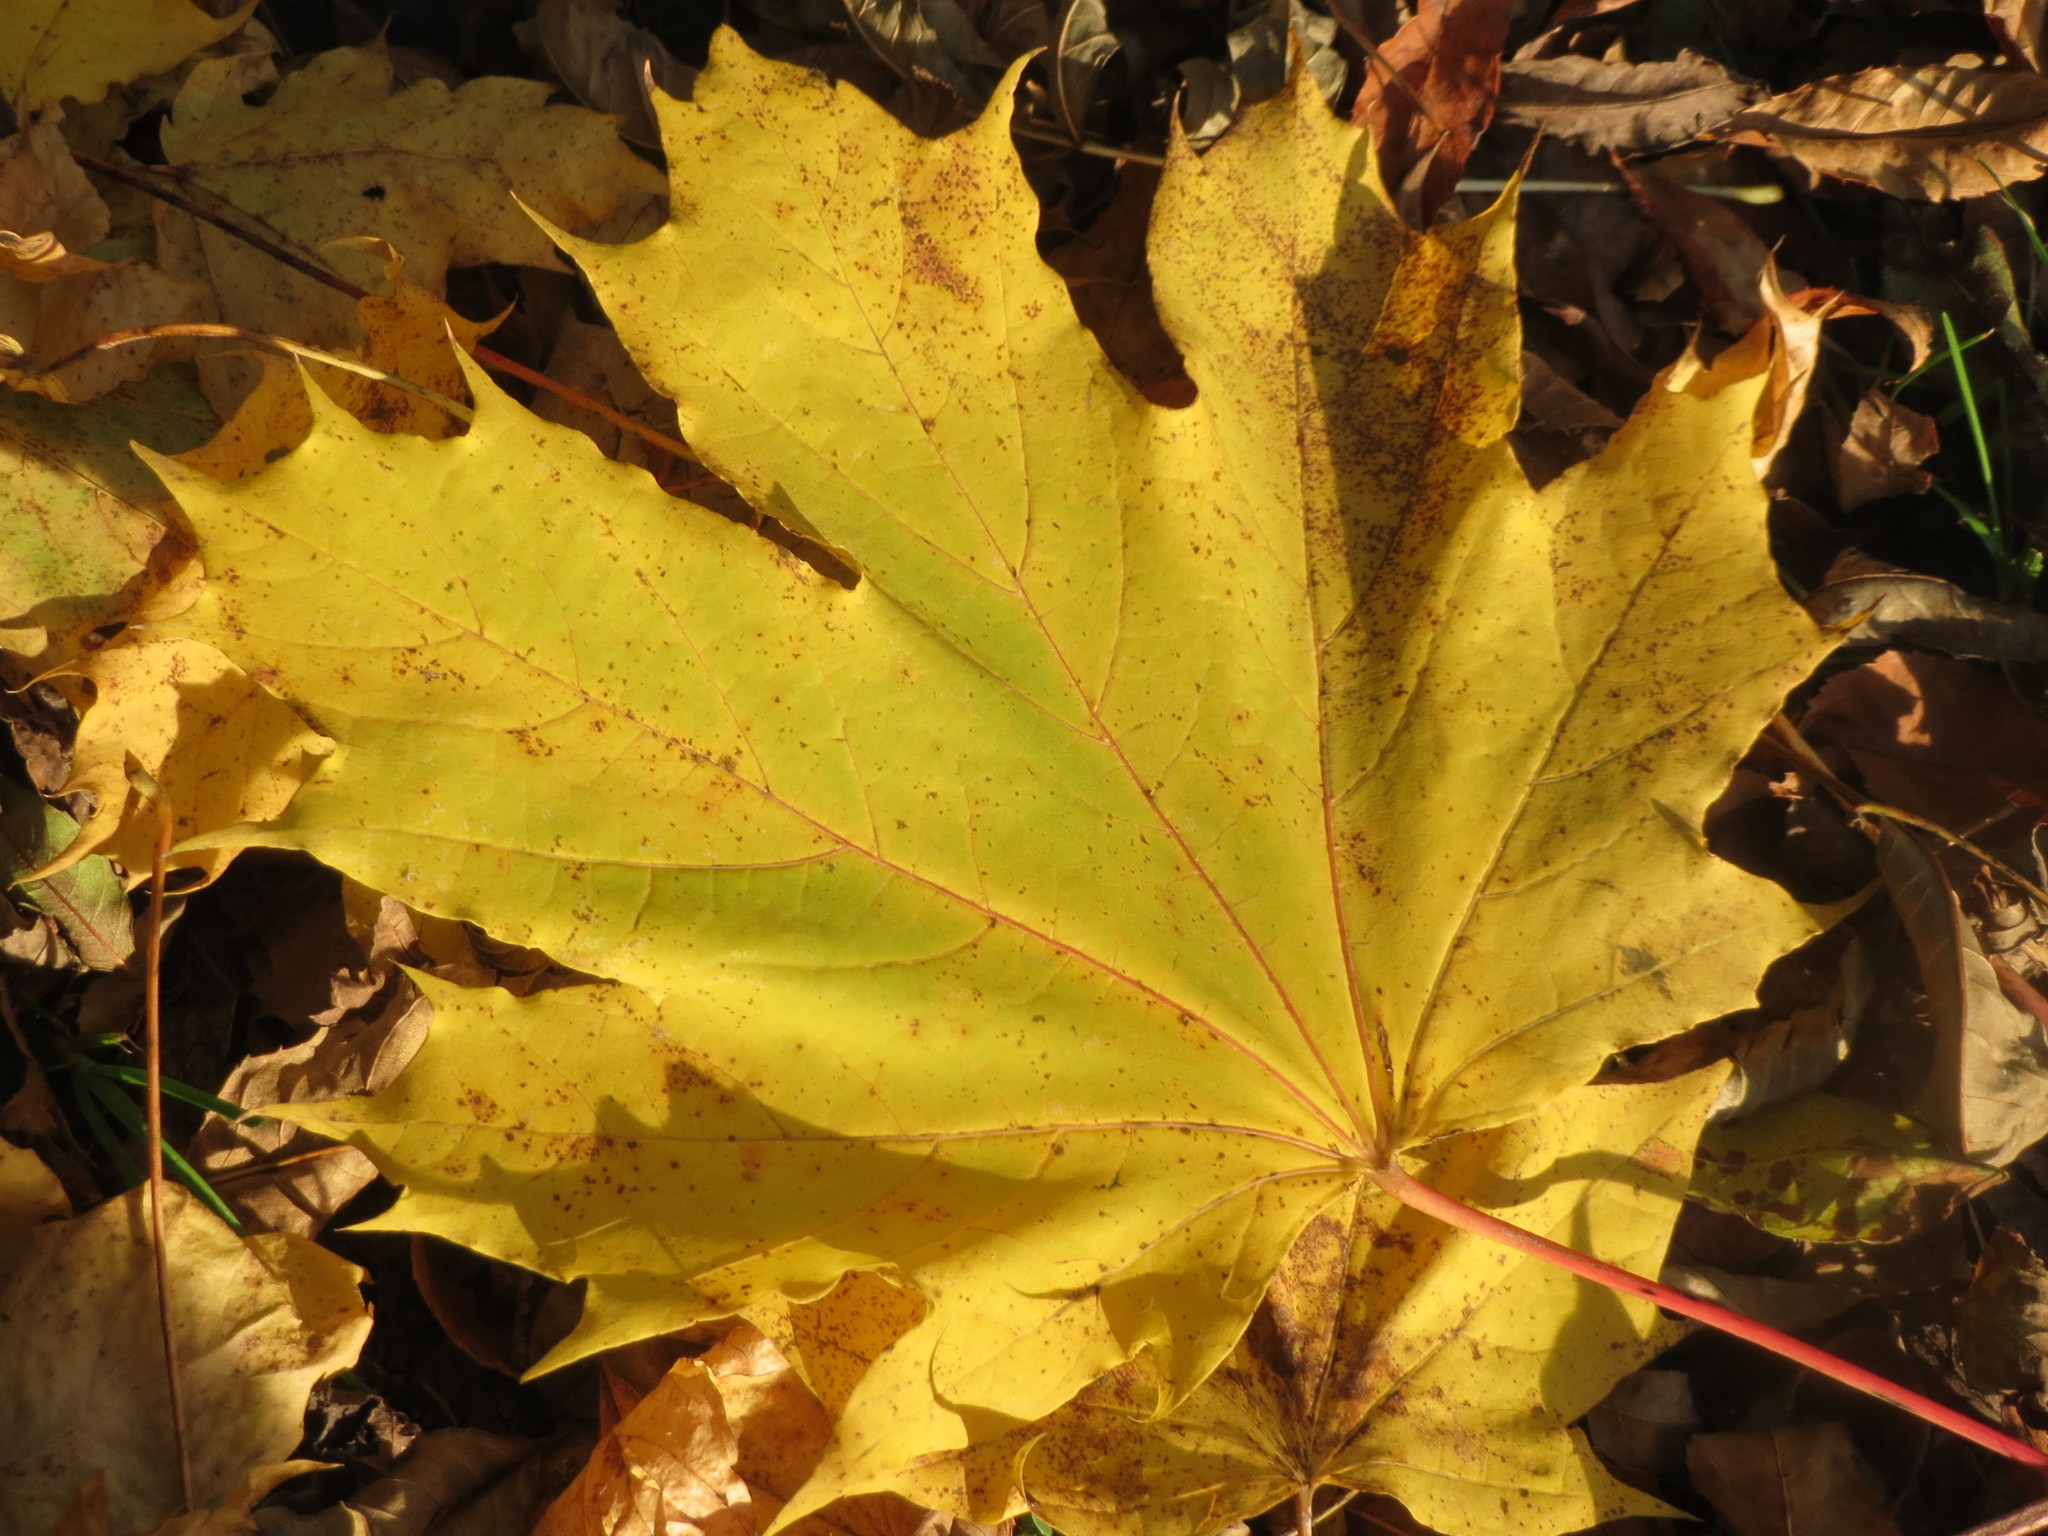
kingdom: Plantae
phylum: Tracheophyta
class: Magnoliopsida
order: Sapindales
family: Sapindaceae
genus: Acer
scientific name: Acer platanoides
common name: Norway maple
